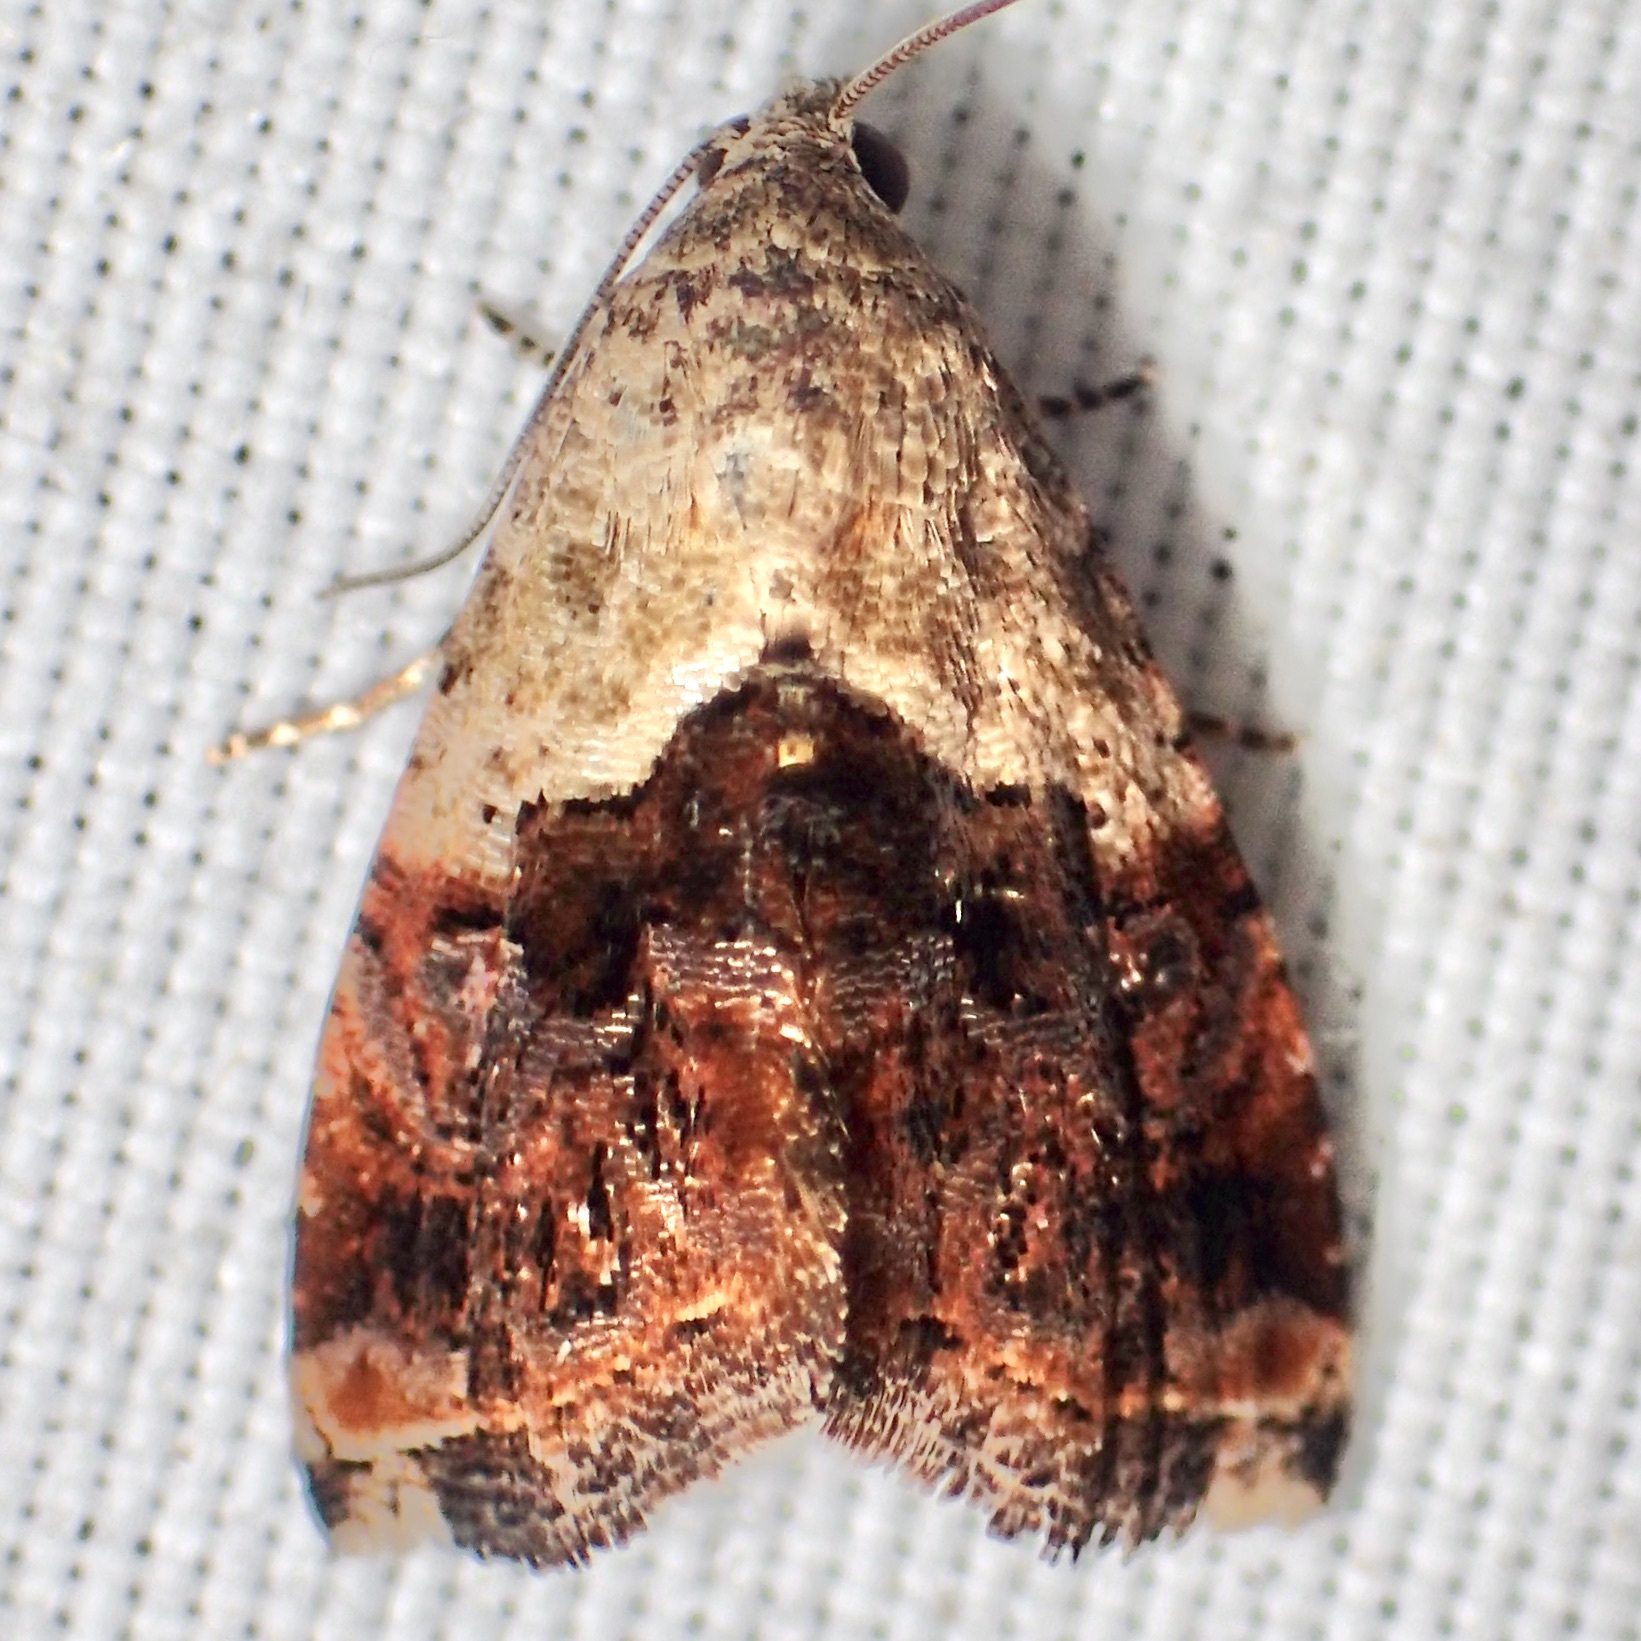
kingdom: Animalia
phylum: Arthropoda
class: Insecta
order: Lepidoptera
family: Noctuidae
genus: Tripudia
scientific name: Tripudia limbatus
